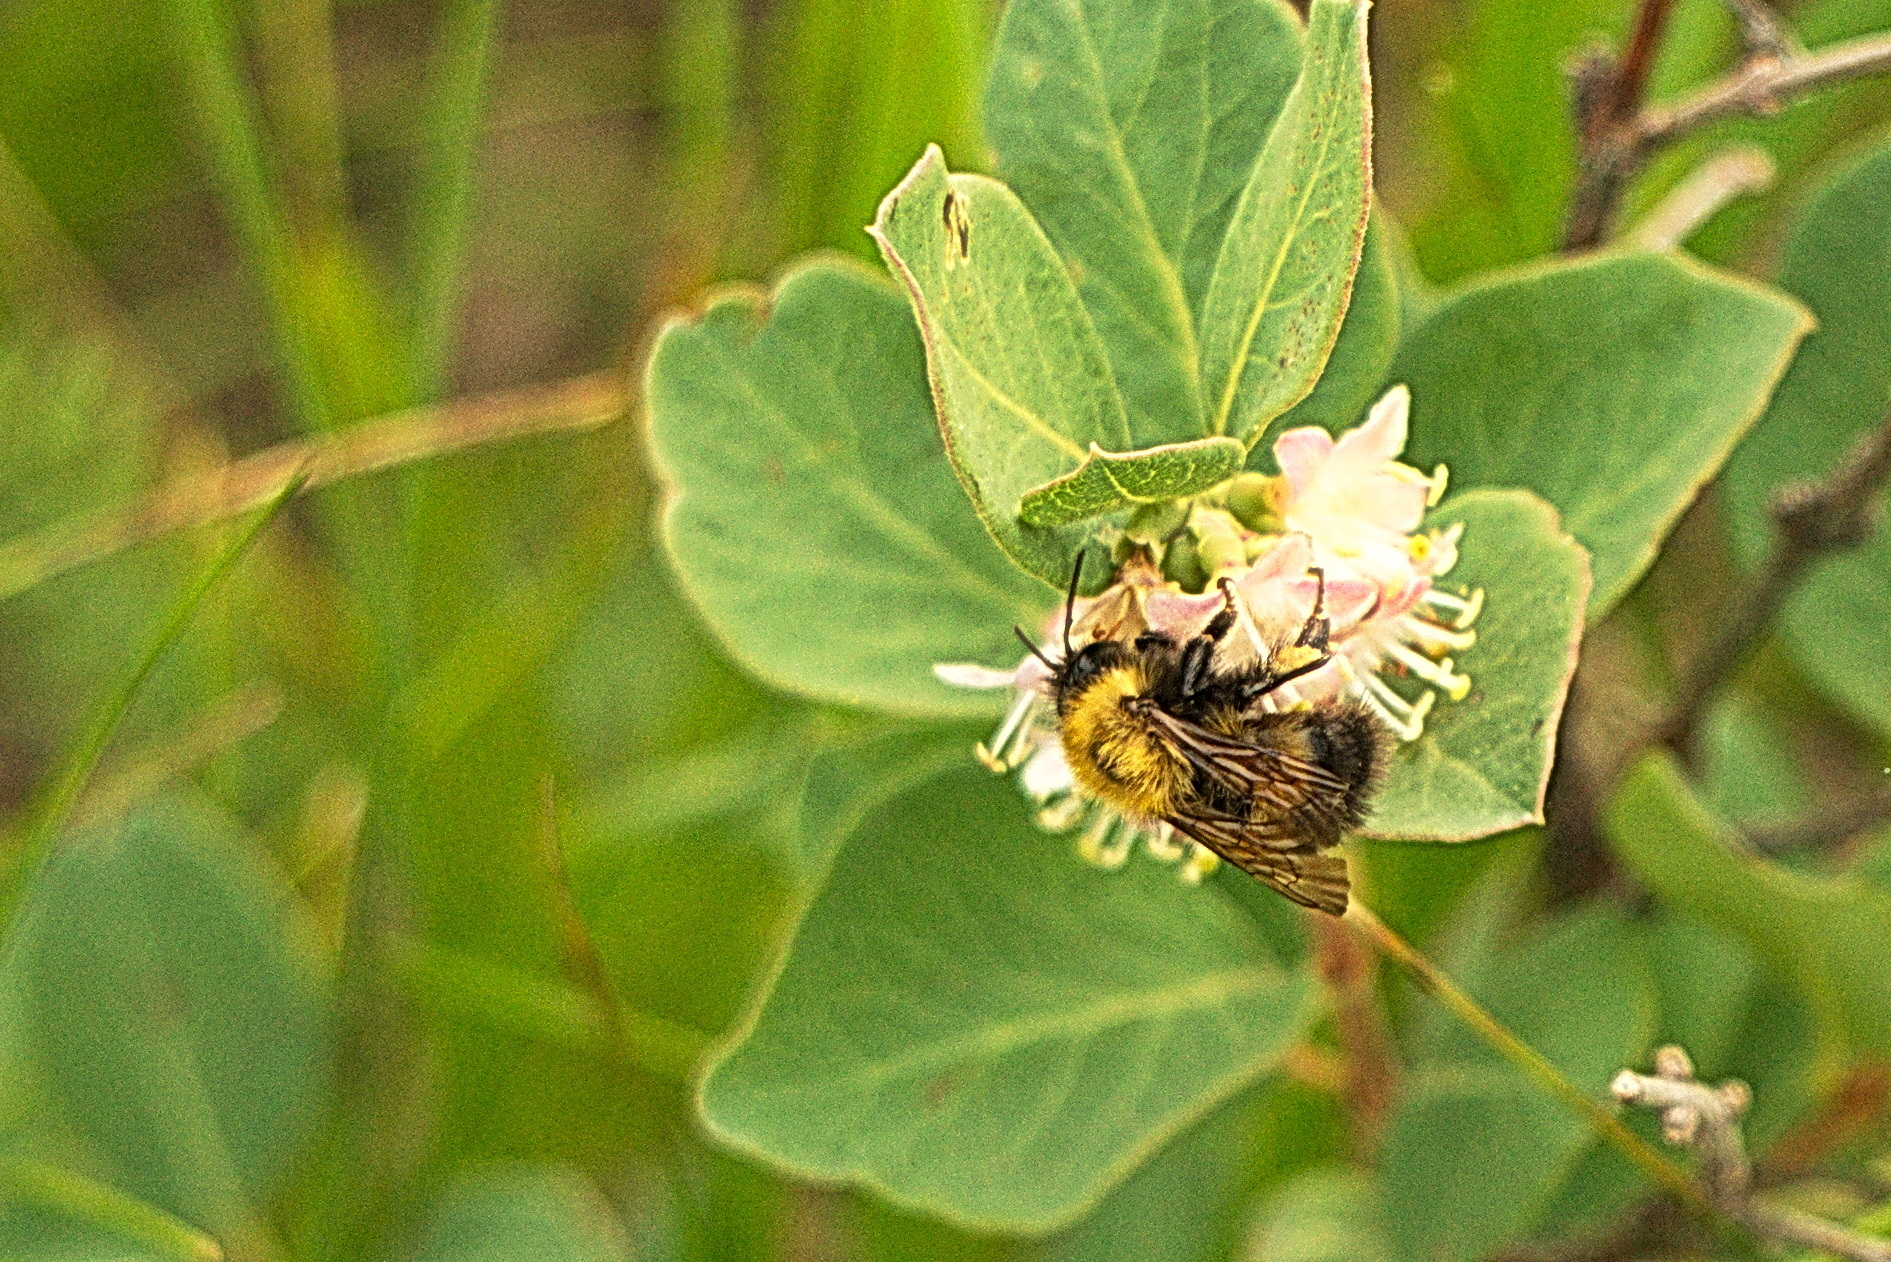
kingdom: Animalia
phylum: Arthropoda
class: Insecta
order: Hymenoptera
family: Apidae
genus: Bombus
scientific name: Bombus perplexus
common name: Confusing bumble bee
